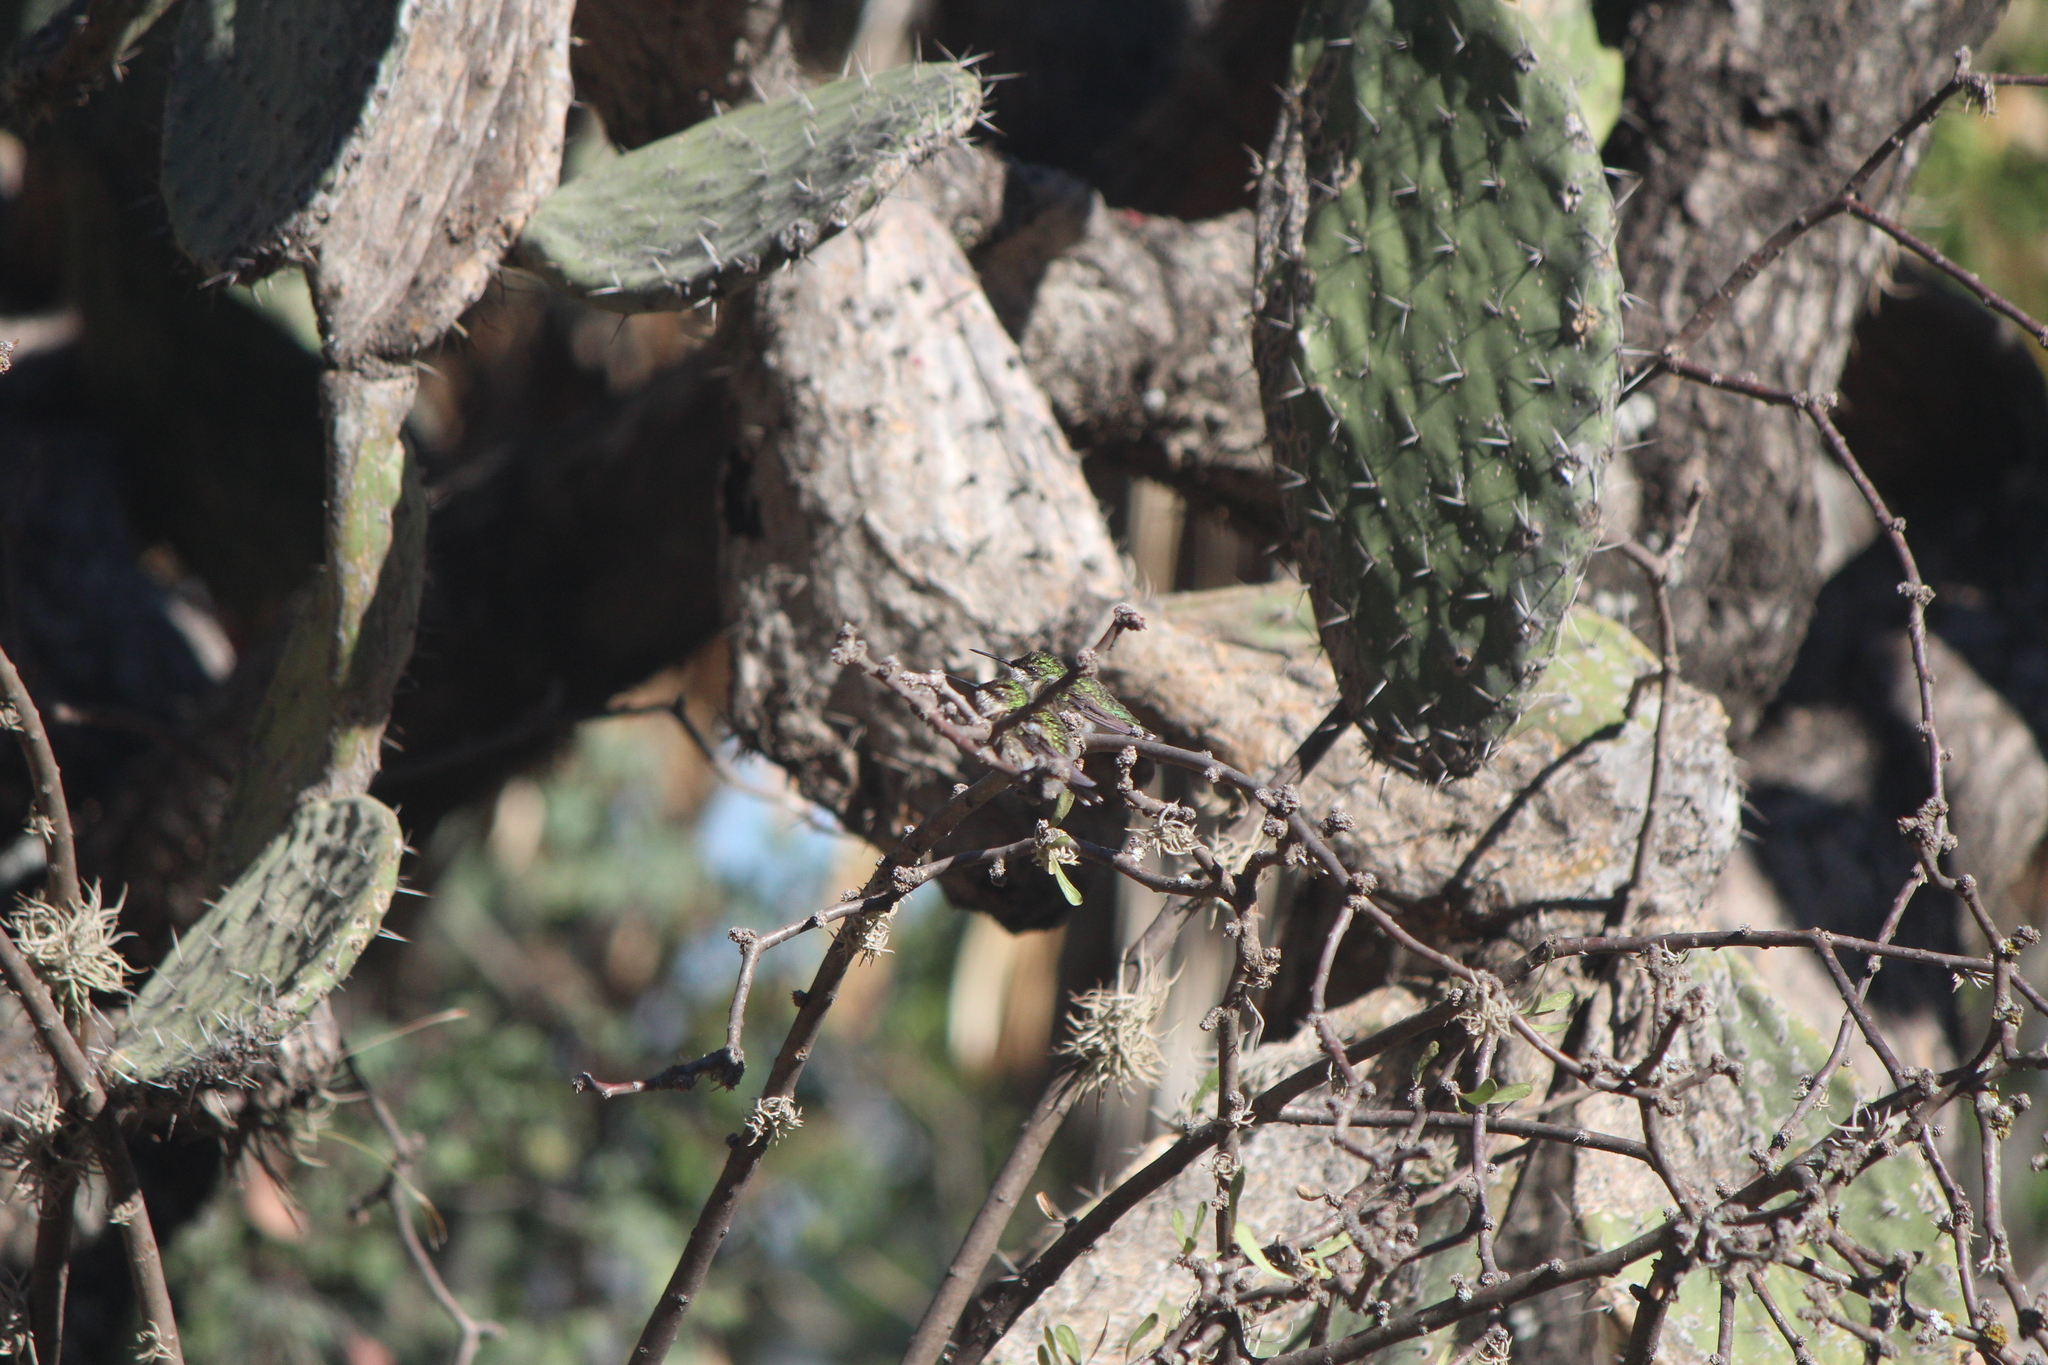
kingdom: Animalia
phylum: Chordata
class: Aves
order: Apodiformes
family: Trochilidae
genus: Archilochus
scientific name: Archilochus colubris
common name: Ruby-throated hummingbird
